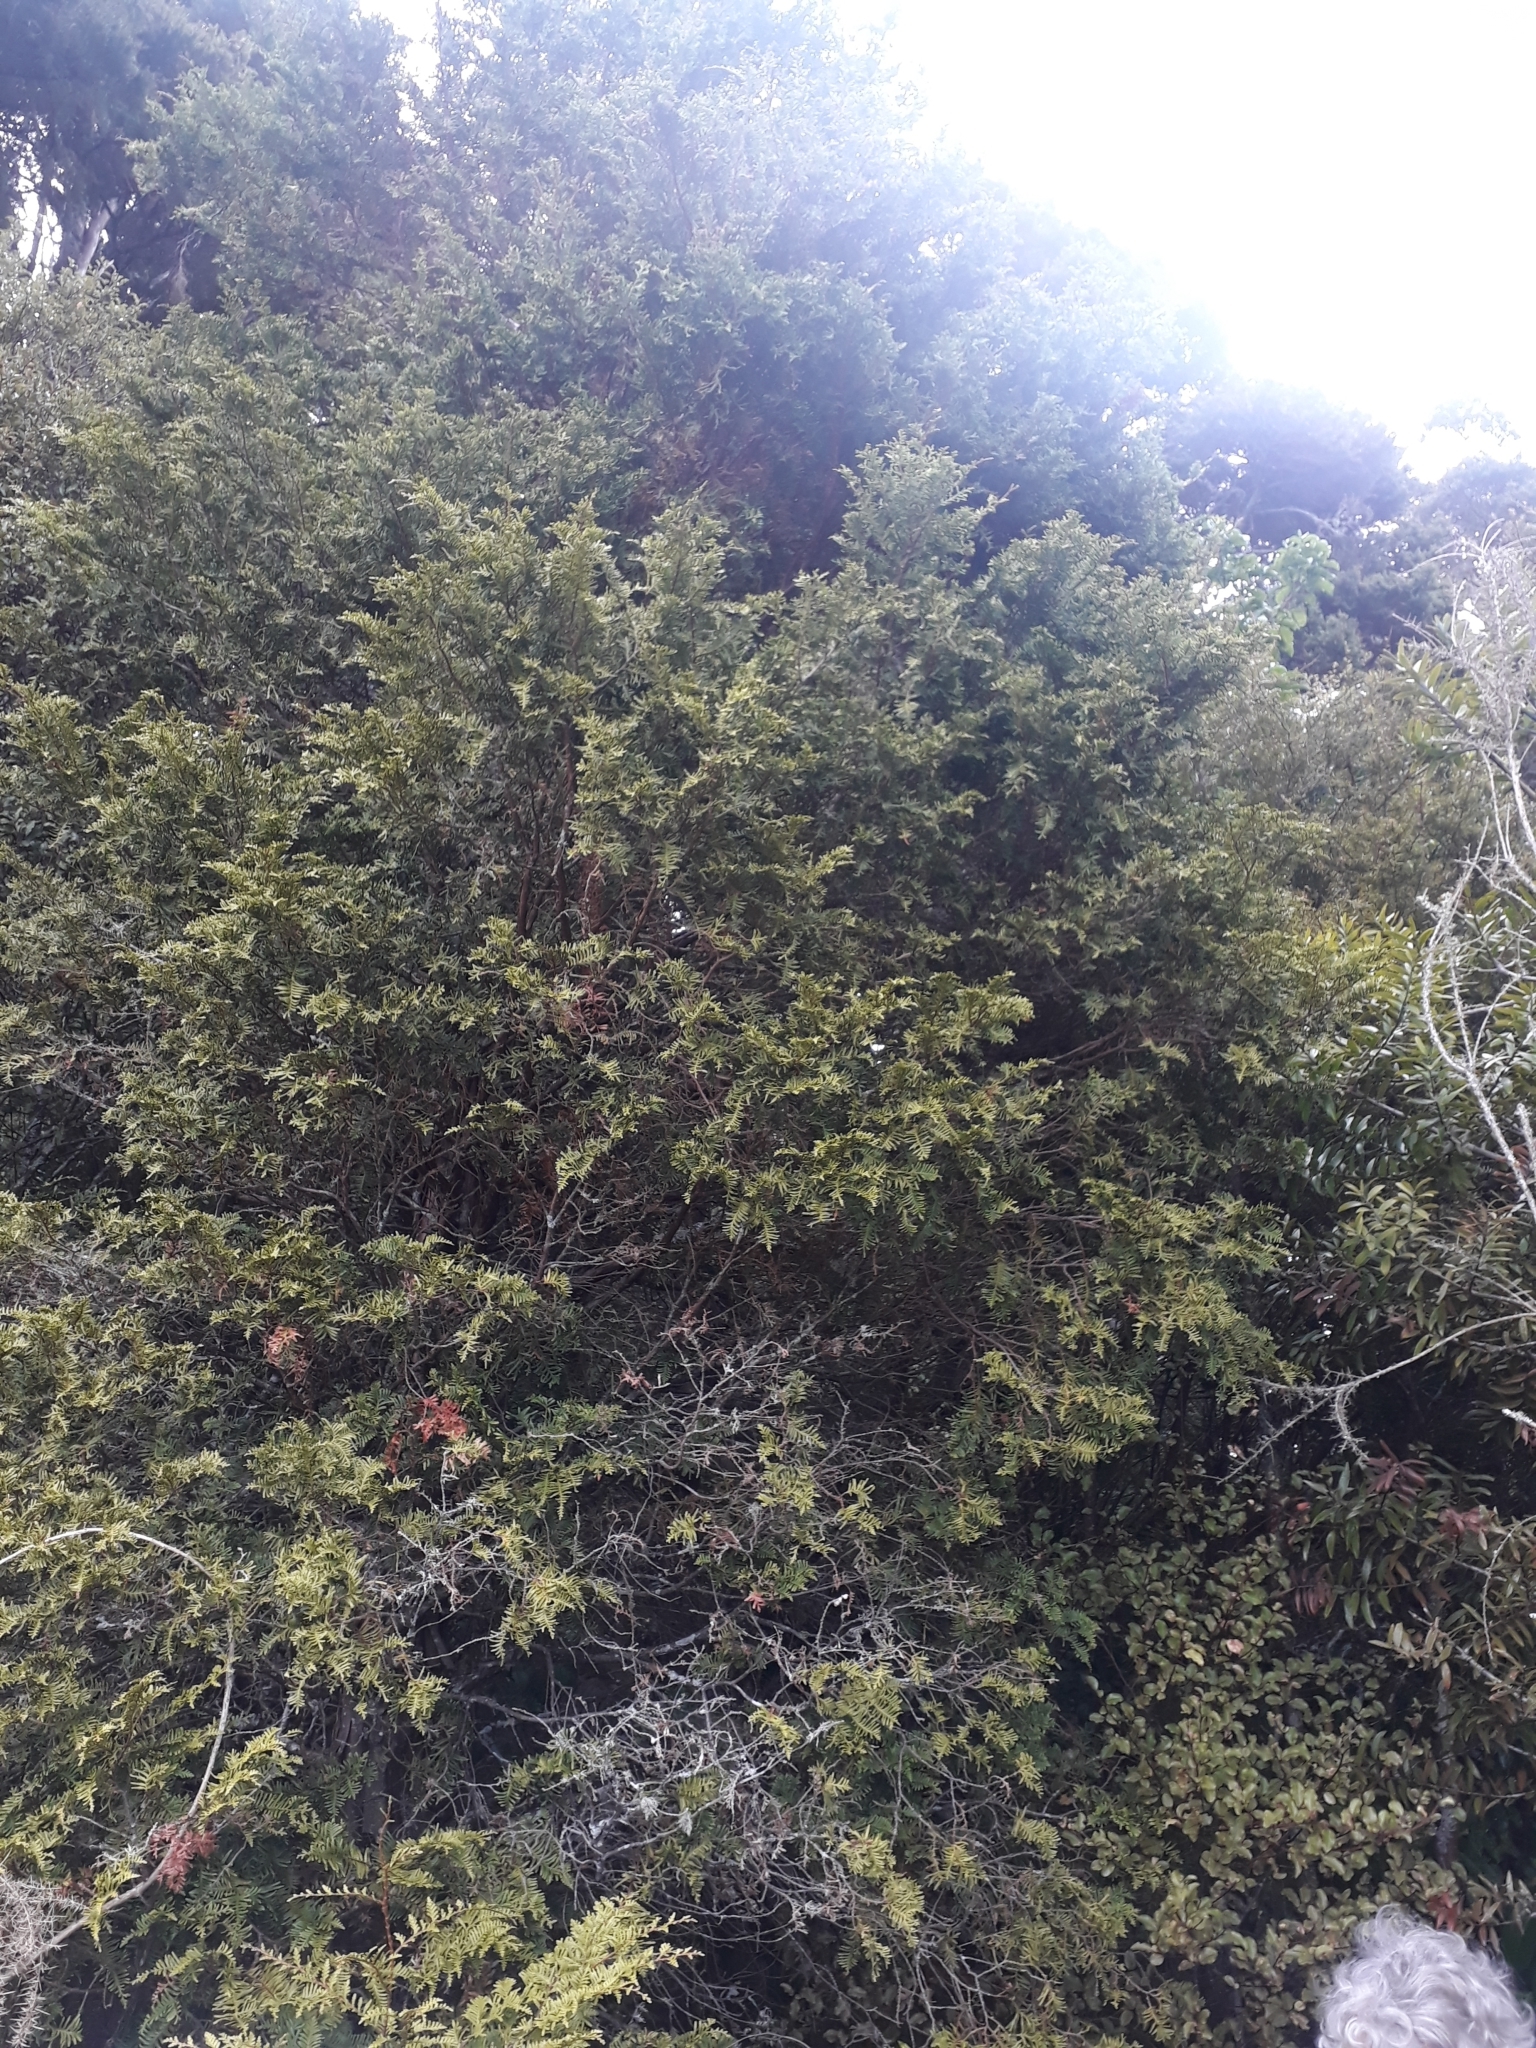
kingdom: Plantae
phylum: Tracheophyta
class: Pinopsida
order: Pinales
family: Cupressaceae
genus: Libocedrus
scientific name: Libocedrus plumosa
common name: New zealand cedar
